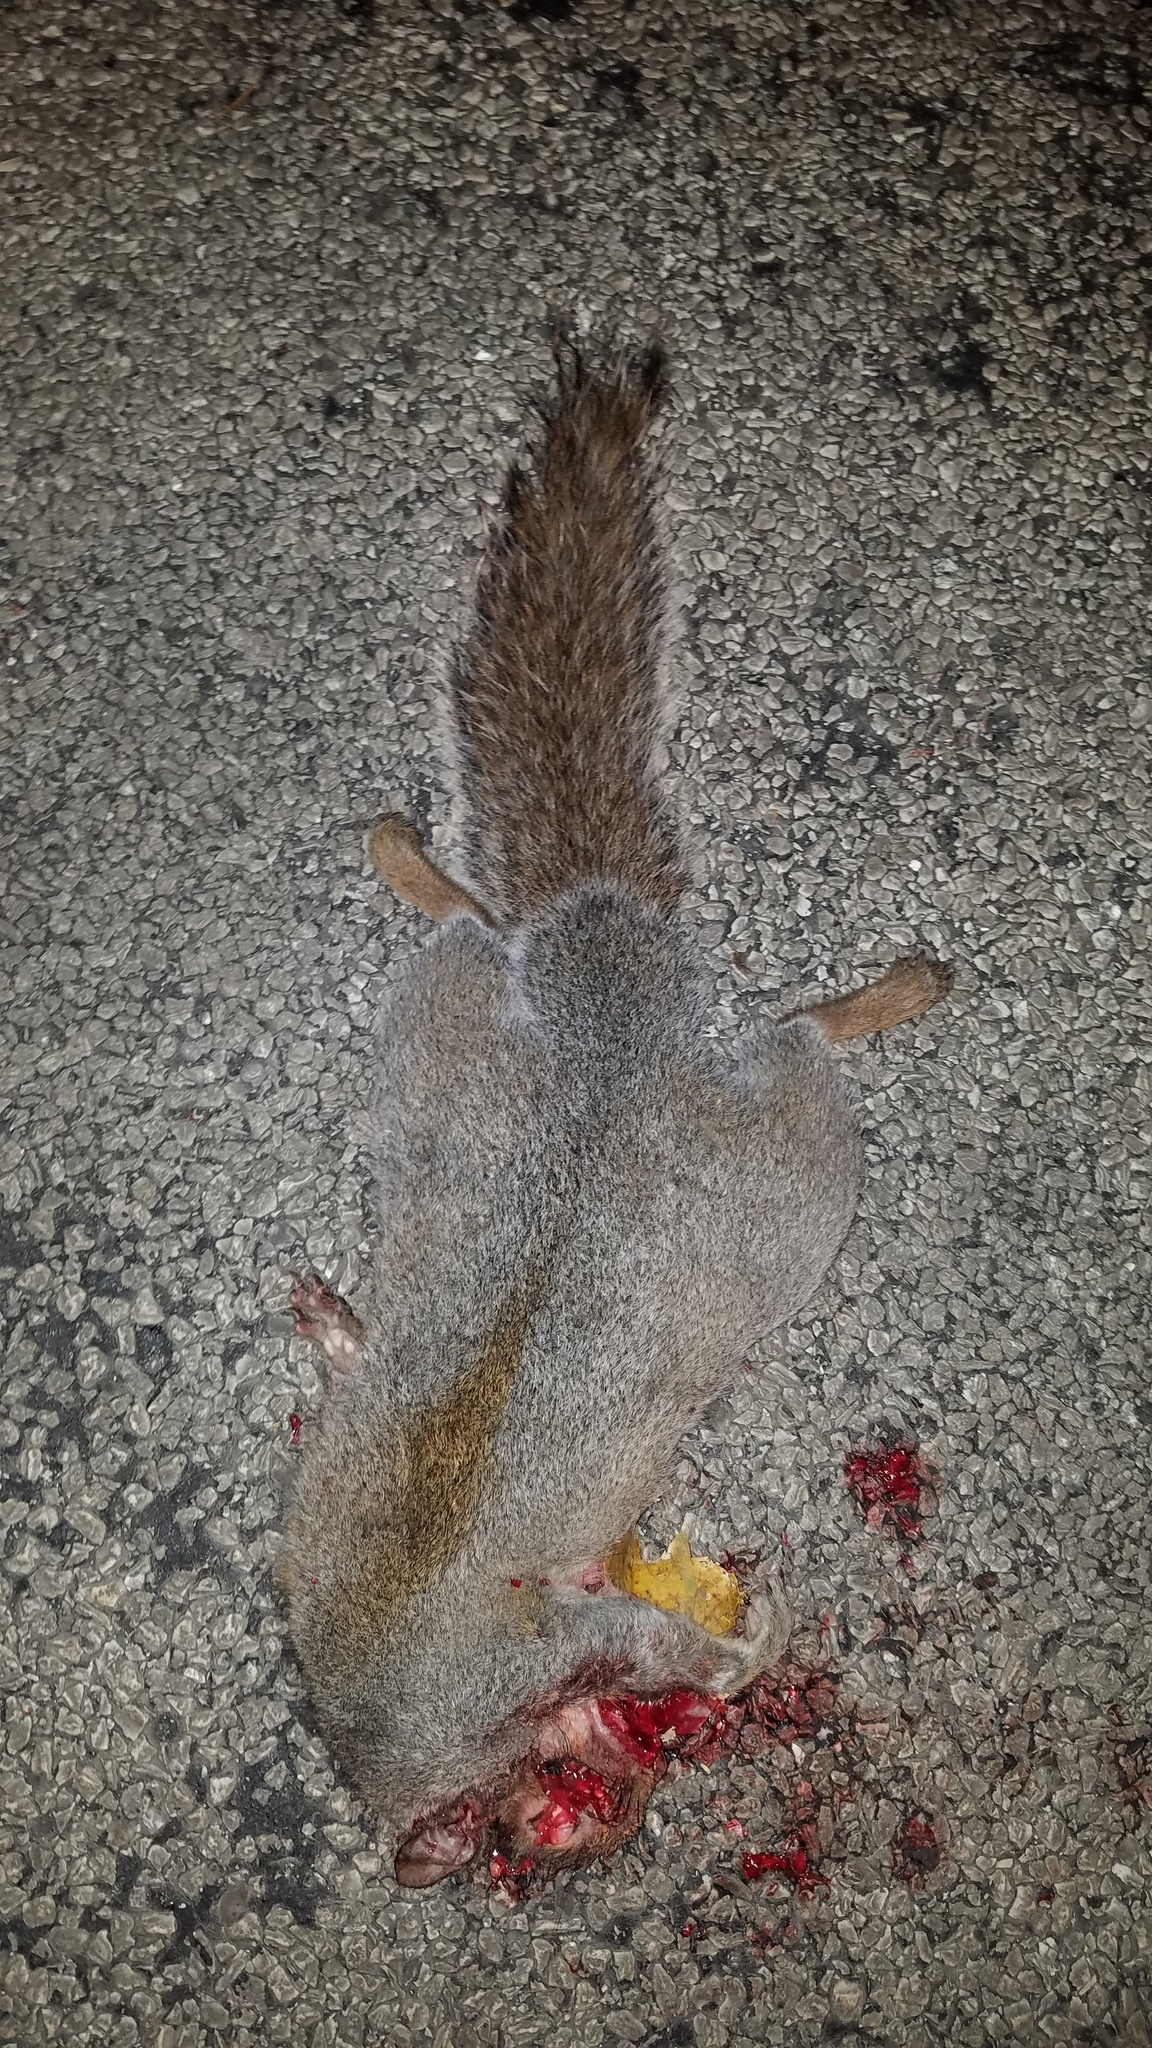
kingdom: Animalia
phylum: Chordata
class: Mammalia
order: Rodentia
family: Sciuridae
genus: Sciurus
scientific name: Sciurus carolinensis
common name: Eastern gray squirrel
